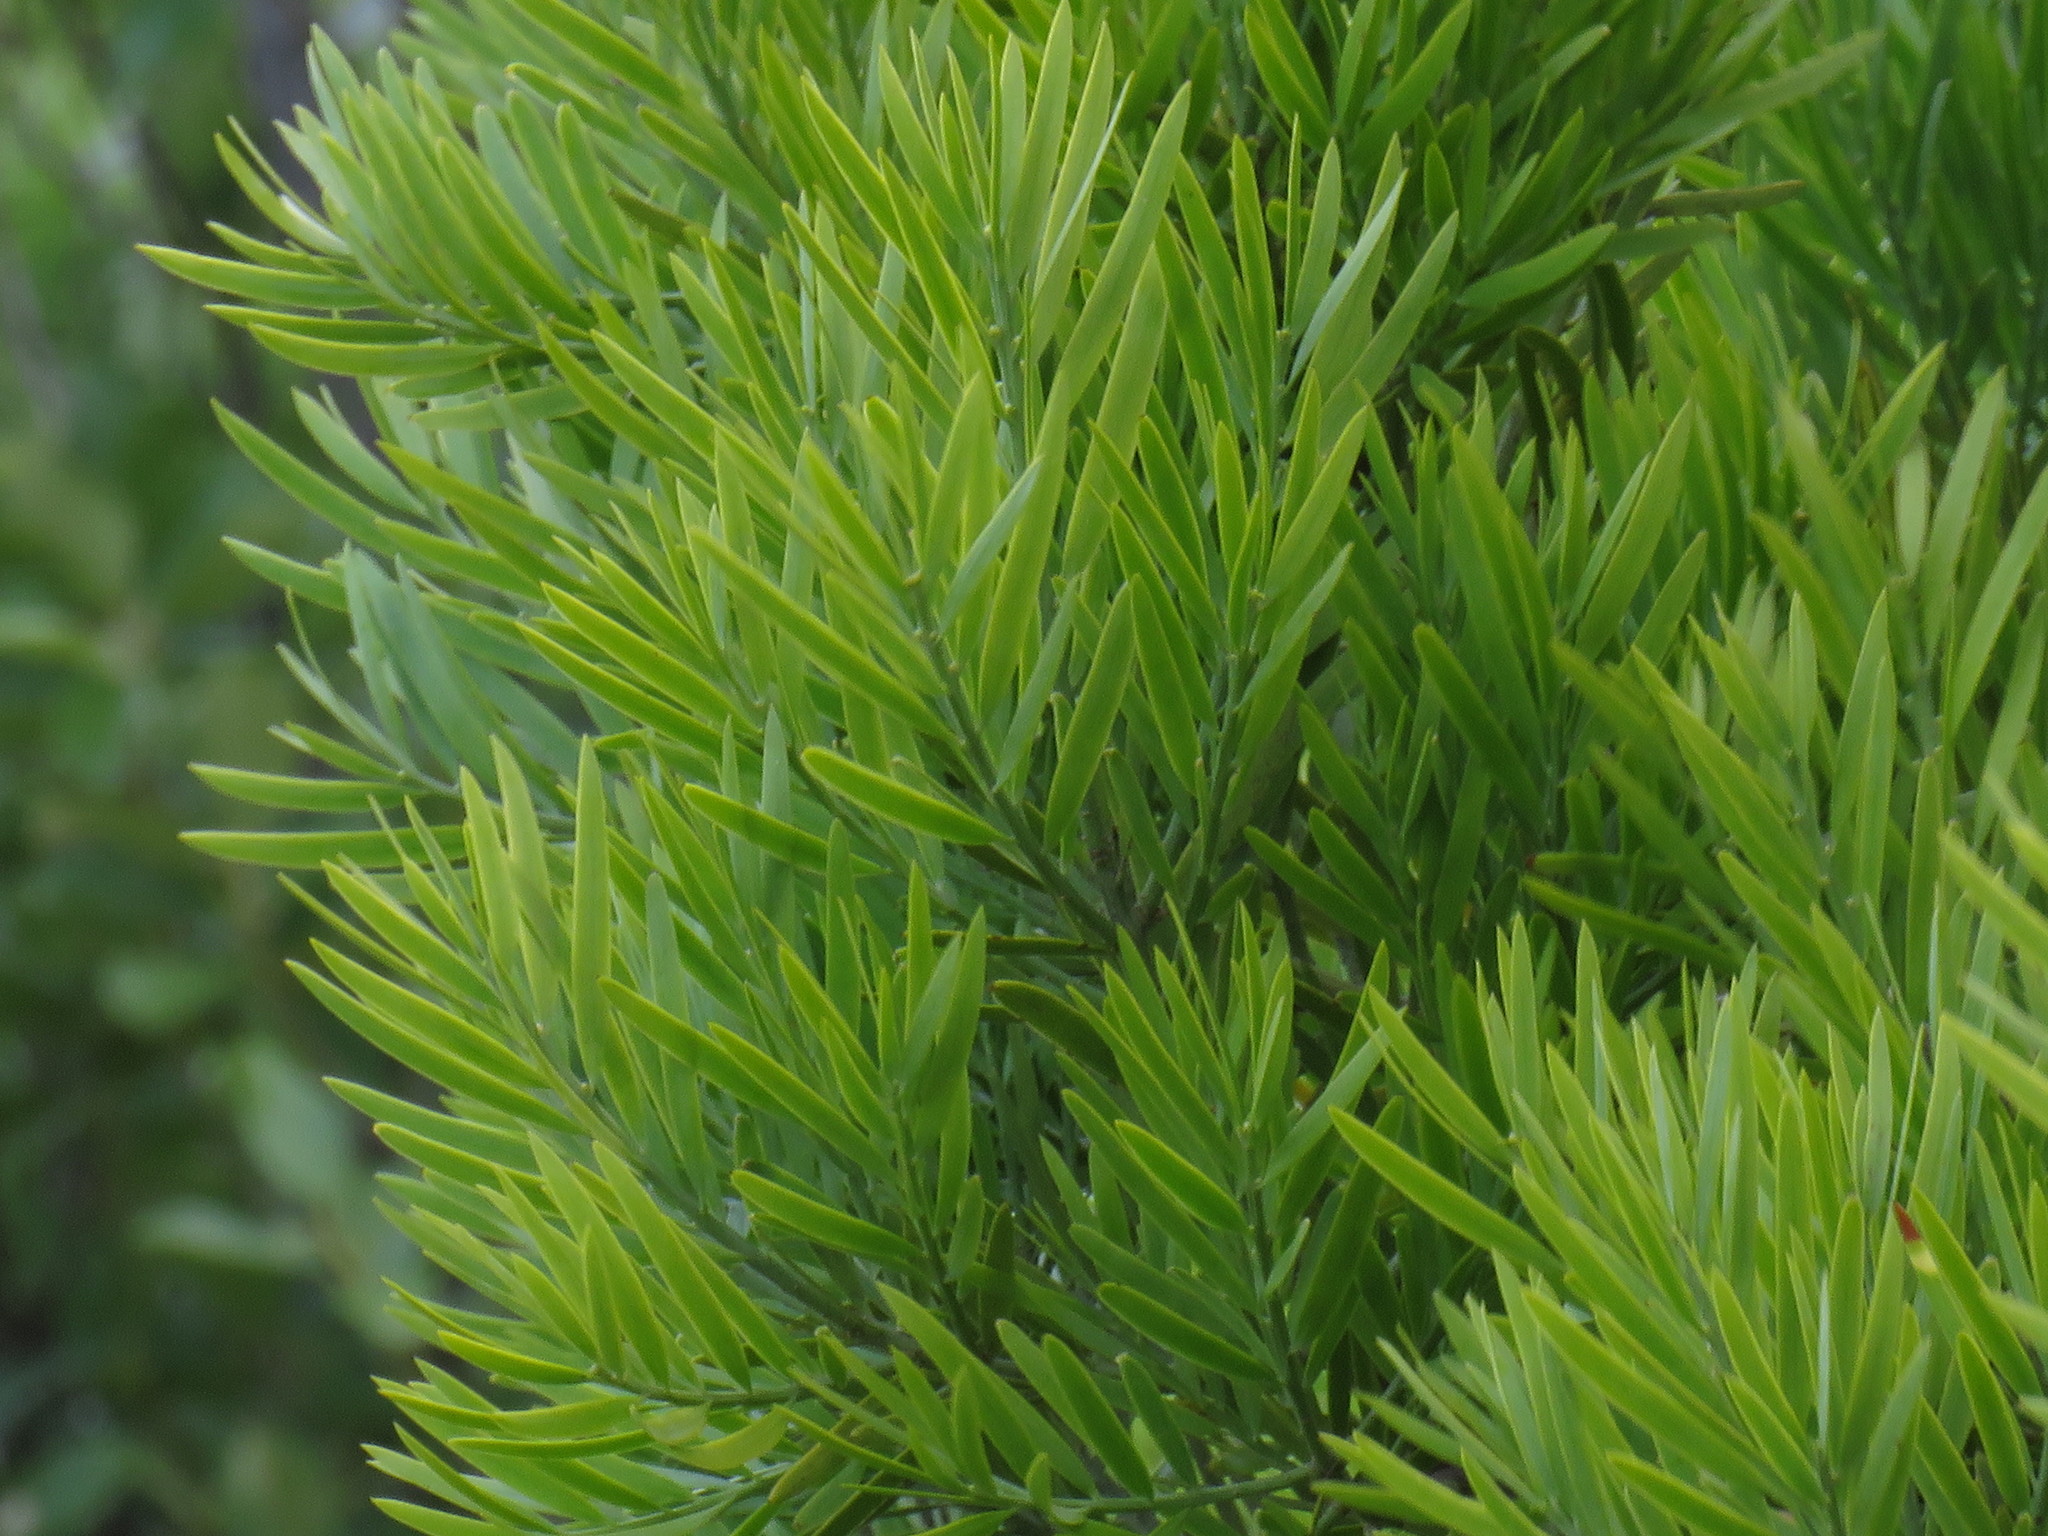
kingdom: Plantae
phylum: Tracheophyta
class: Pinopsida
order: Pinales
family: Podocarpaceae
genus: Afrocarpus
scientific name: Afrocarpus falcatus
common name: Bastard yellowwood
